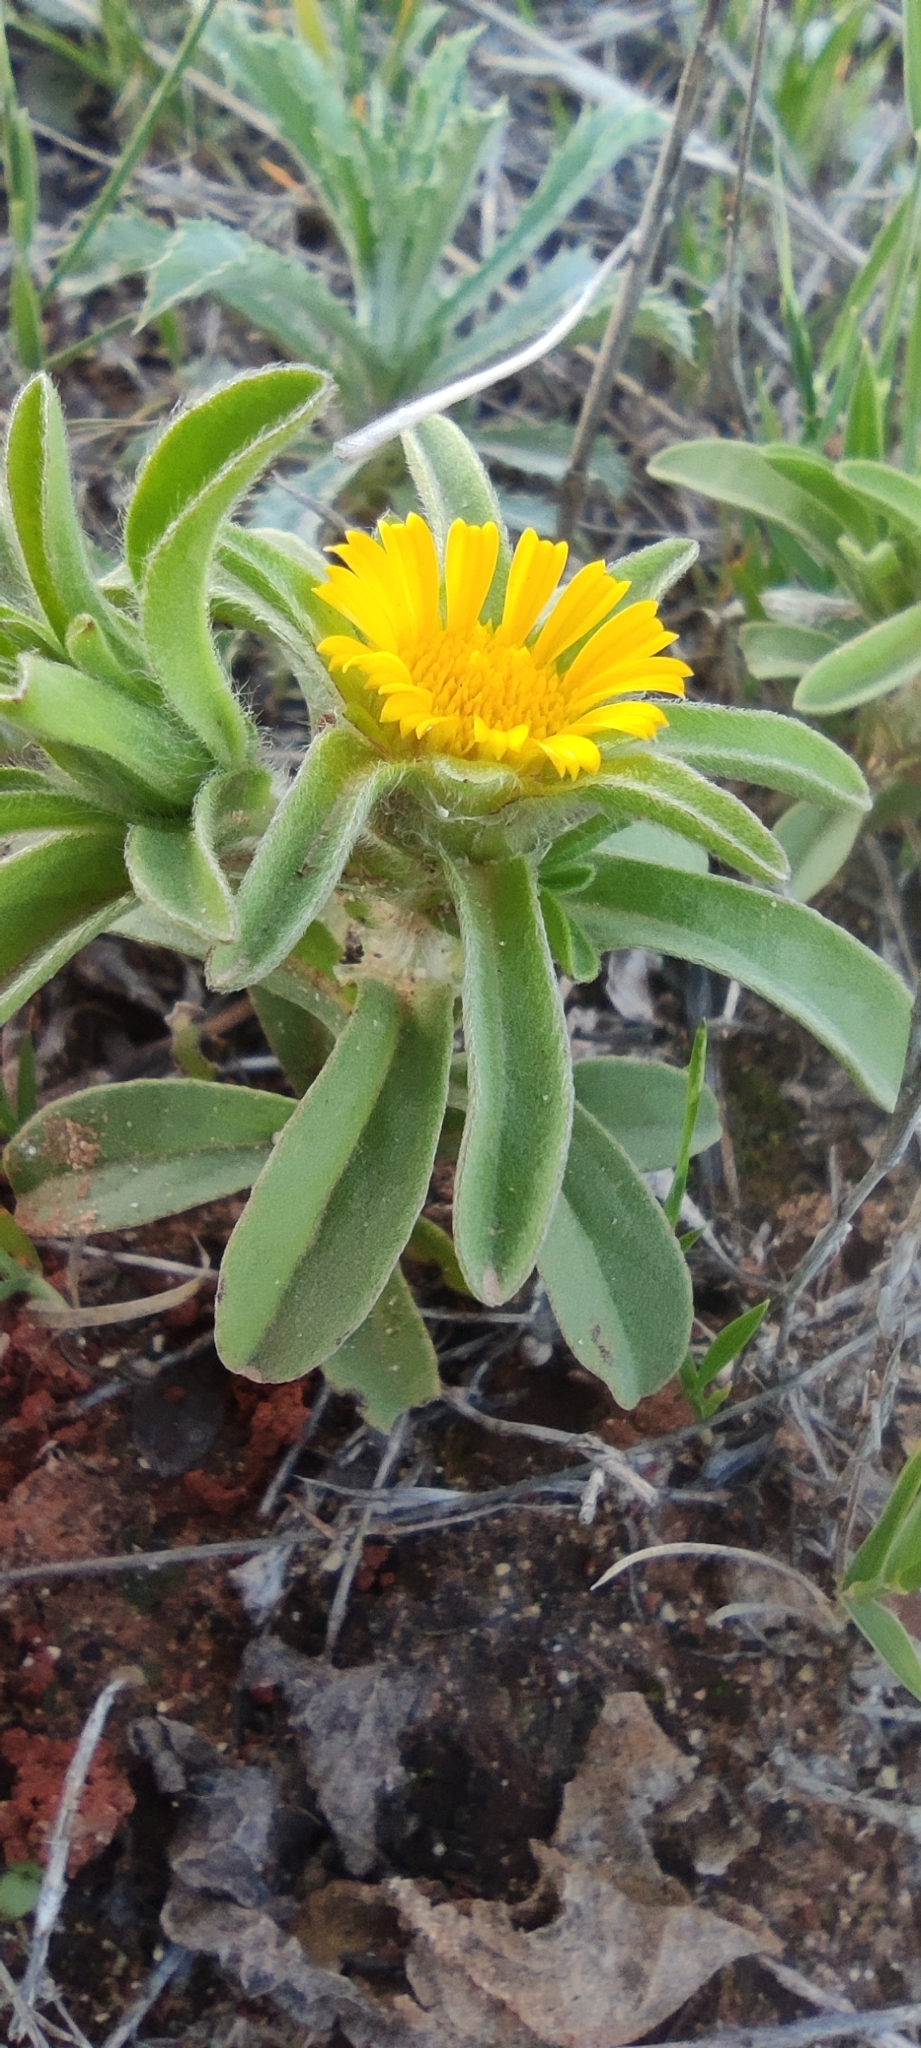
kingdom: Plantae
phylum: Tracheophyta
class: Magnoliopsida
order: Asterales
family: Asteraceae
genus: Asteriscus
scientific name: Asteriscus aquaticus
